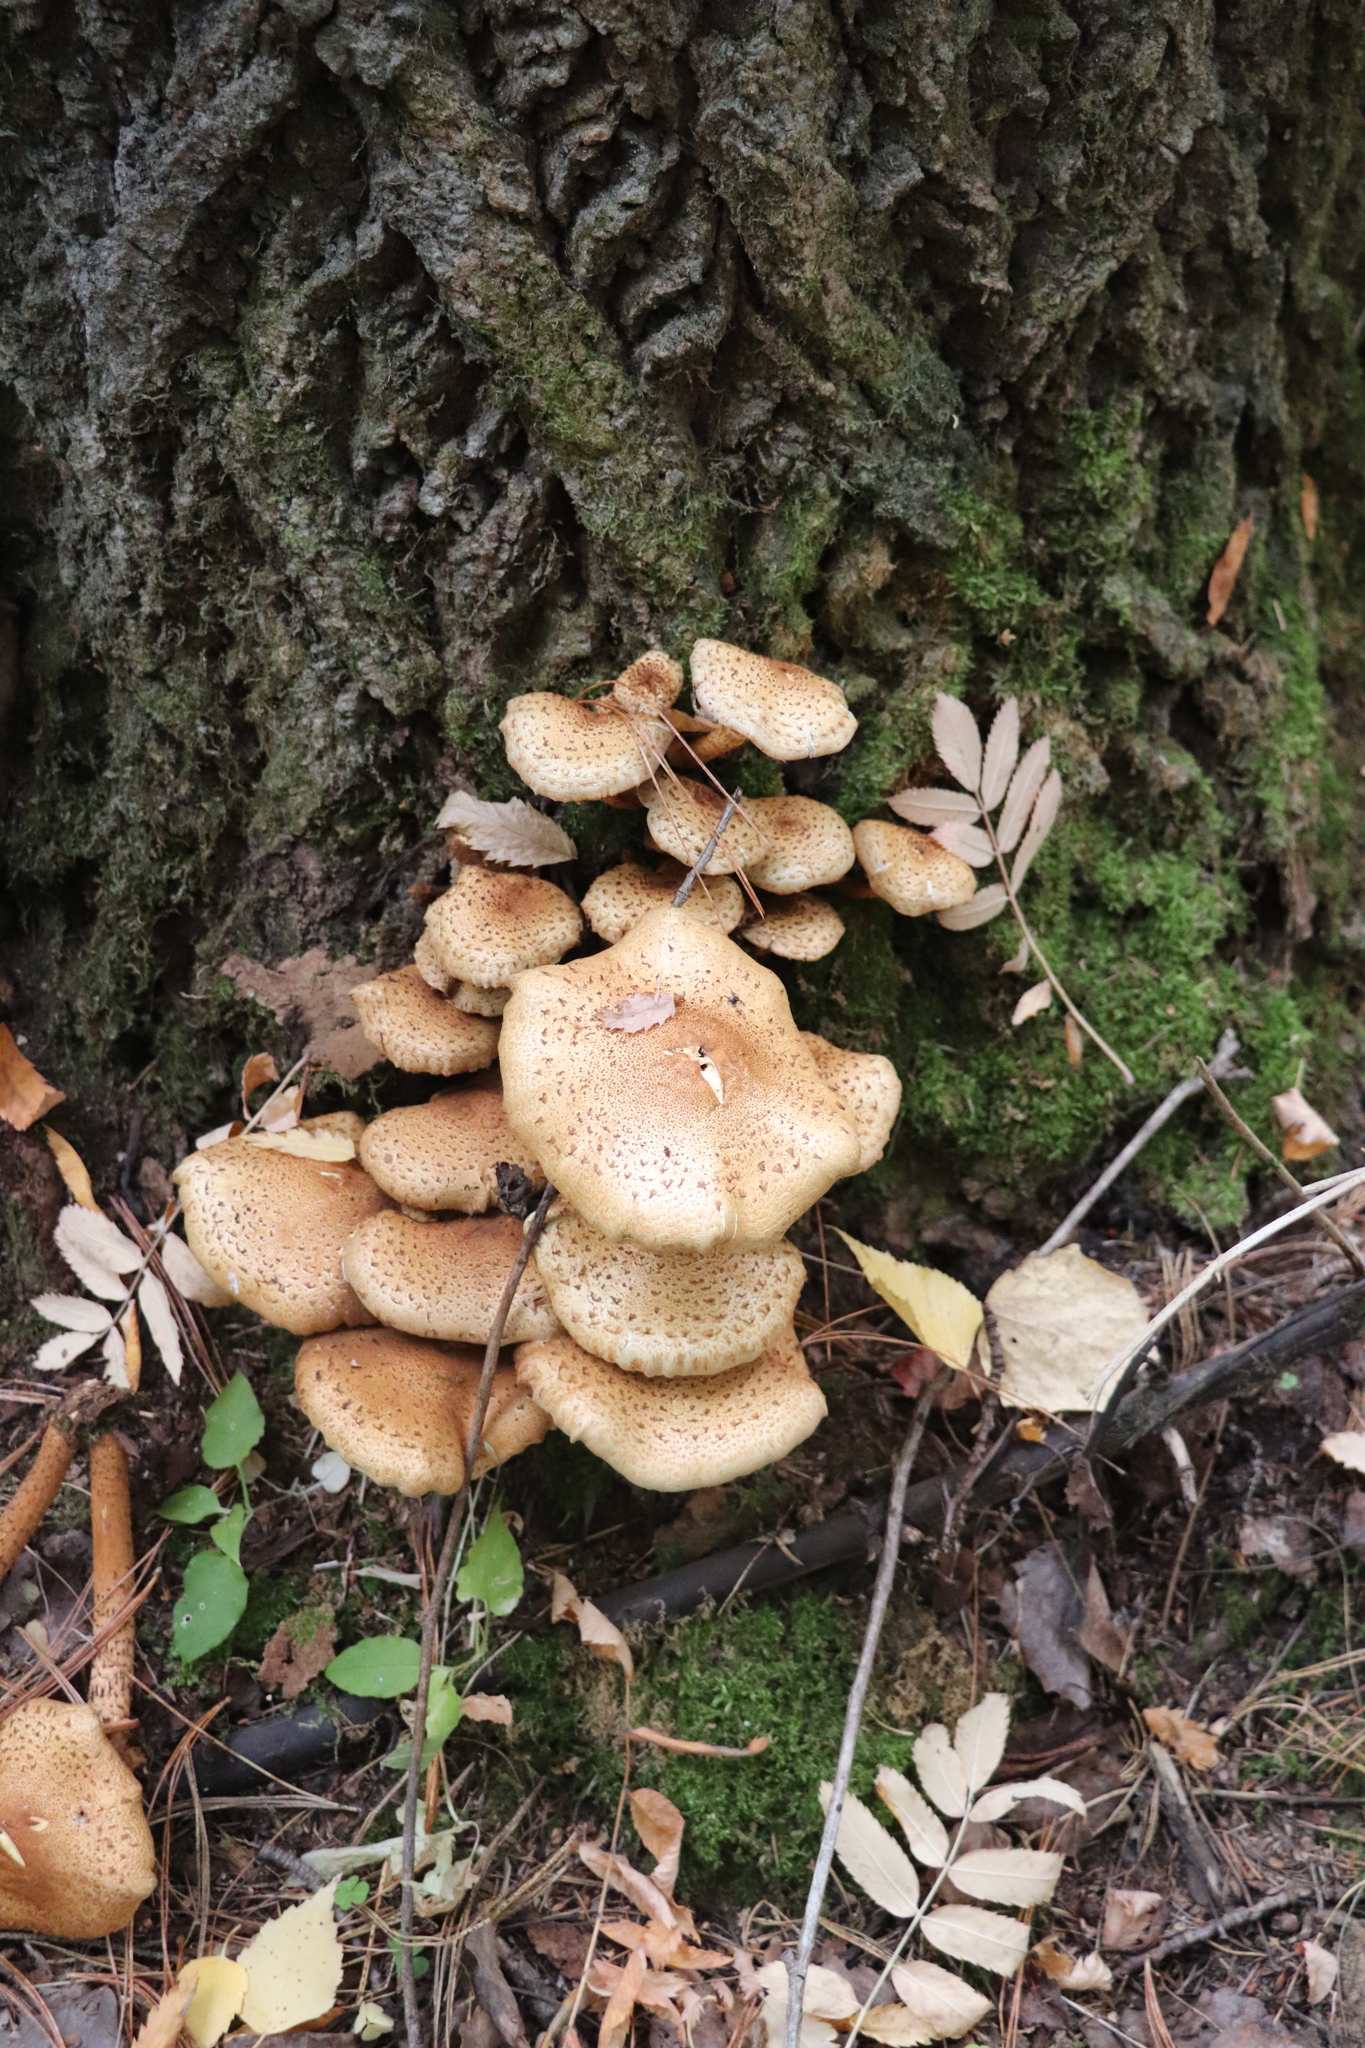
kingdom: Fungi
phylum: Basidiomycota
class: Agaricomycetes
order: Agaricales
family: Strophariaceae
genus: Pholiota
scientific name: Pholiota squarrosa
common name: Shaggy pholiota
